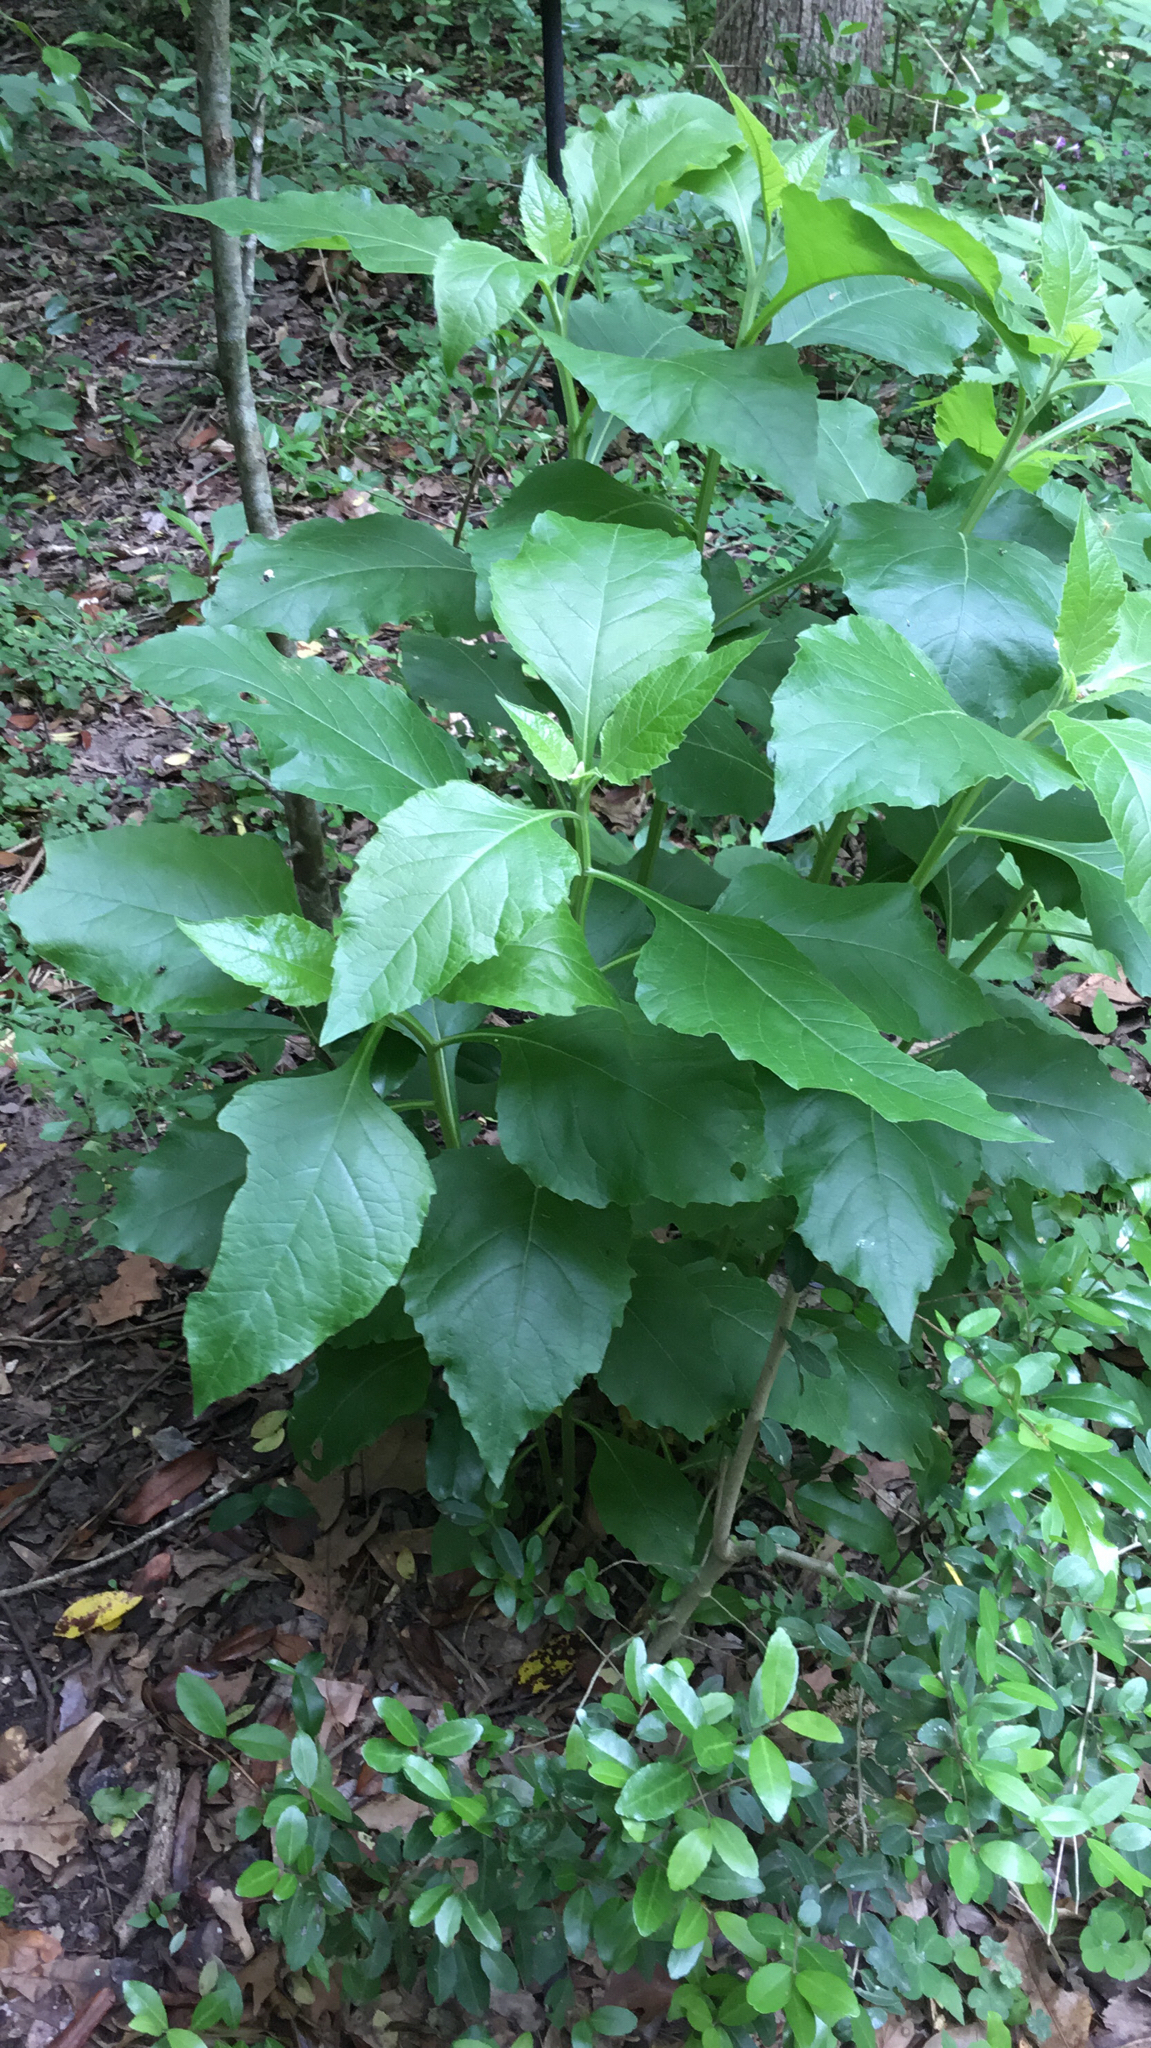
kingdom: Plantae
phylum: Tracheophyta
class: Magnoliopsida
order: Asterales
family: Asteraceae
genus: Verbesina
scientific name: Verbesina virginica
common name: Frostweed
